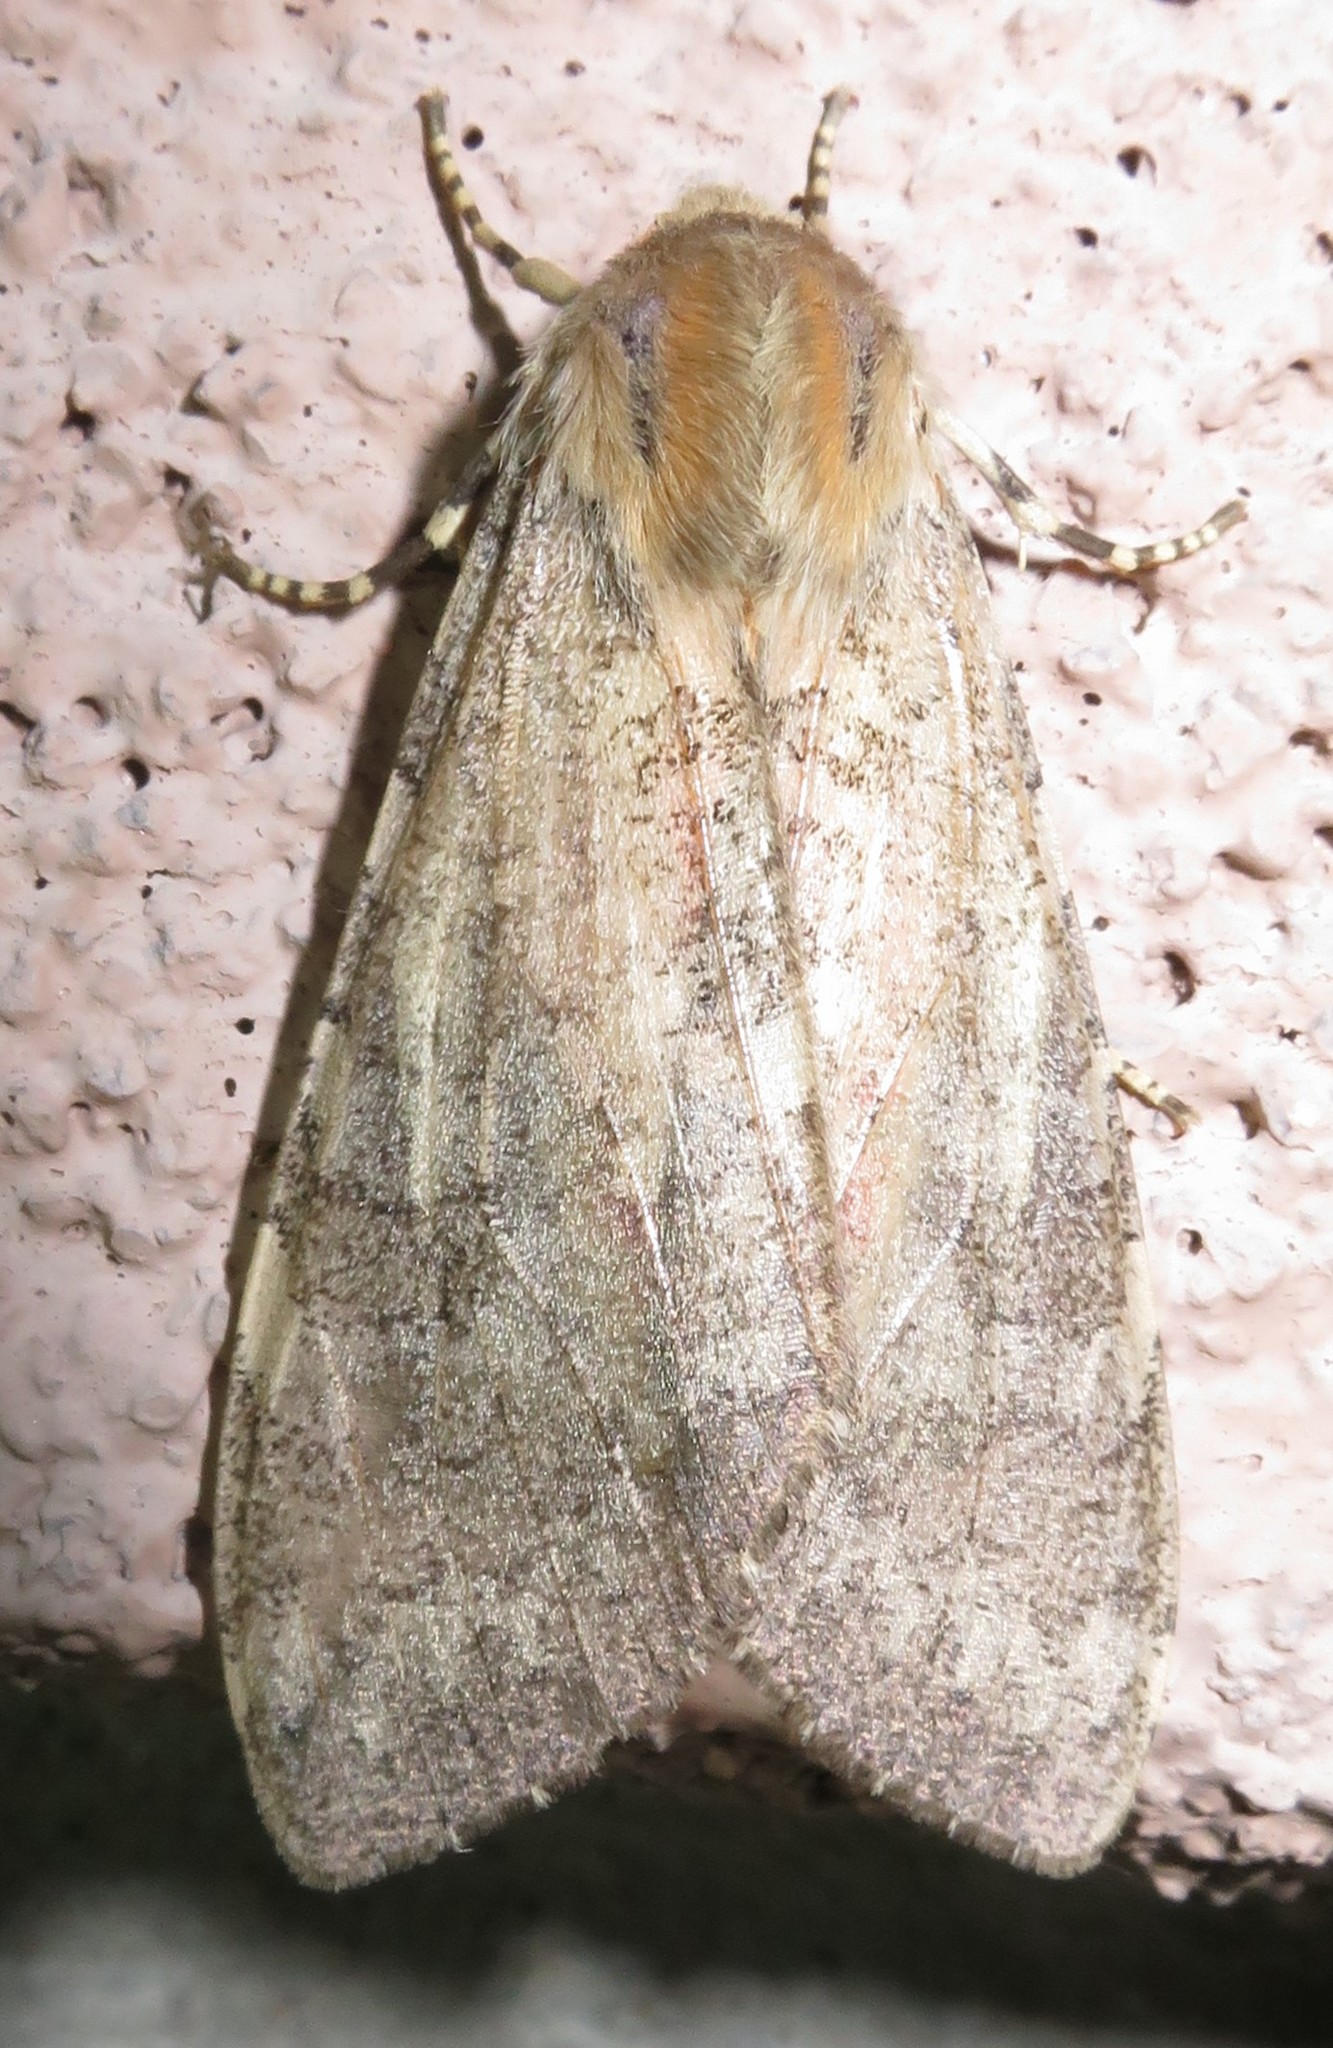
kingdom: Animalia
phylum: Arthropoda
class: Insecta
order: Lepidoptera
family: Erebidae
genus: Hemihyalea
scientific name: Hemihyalea labecula
